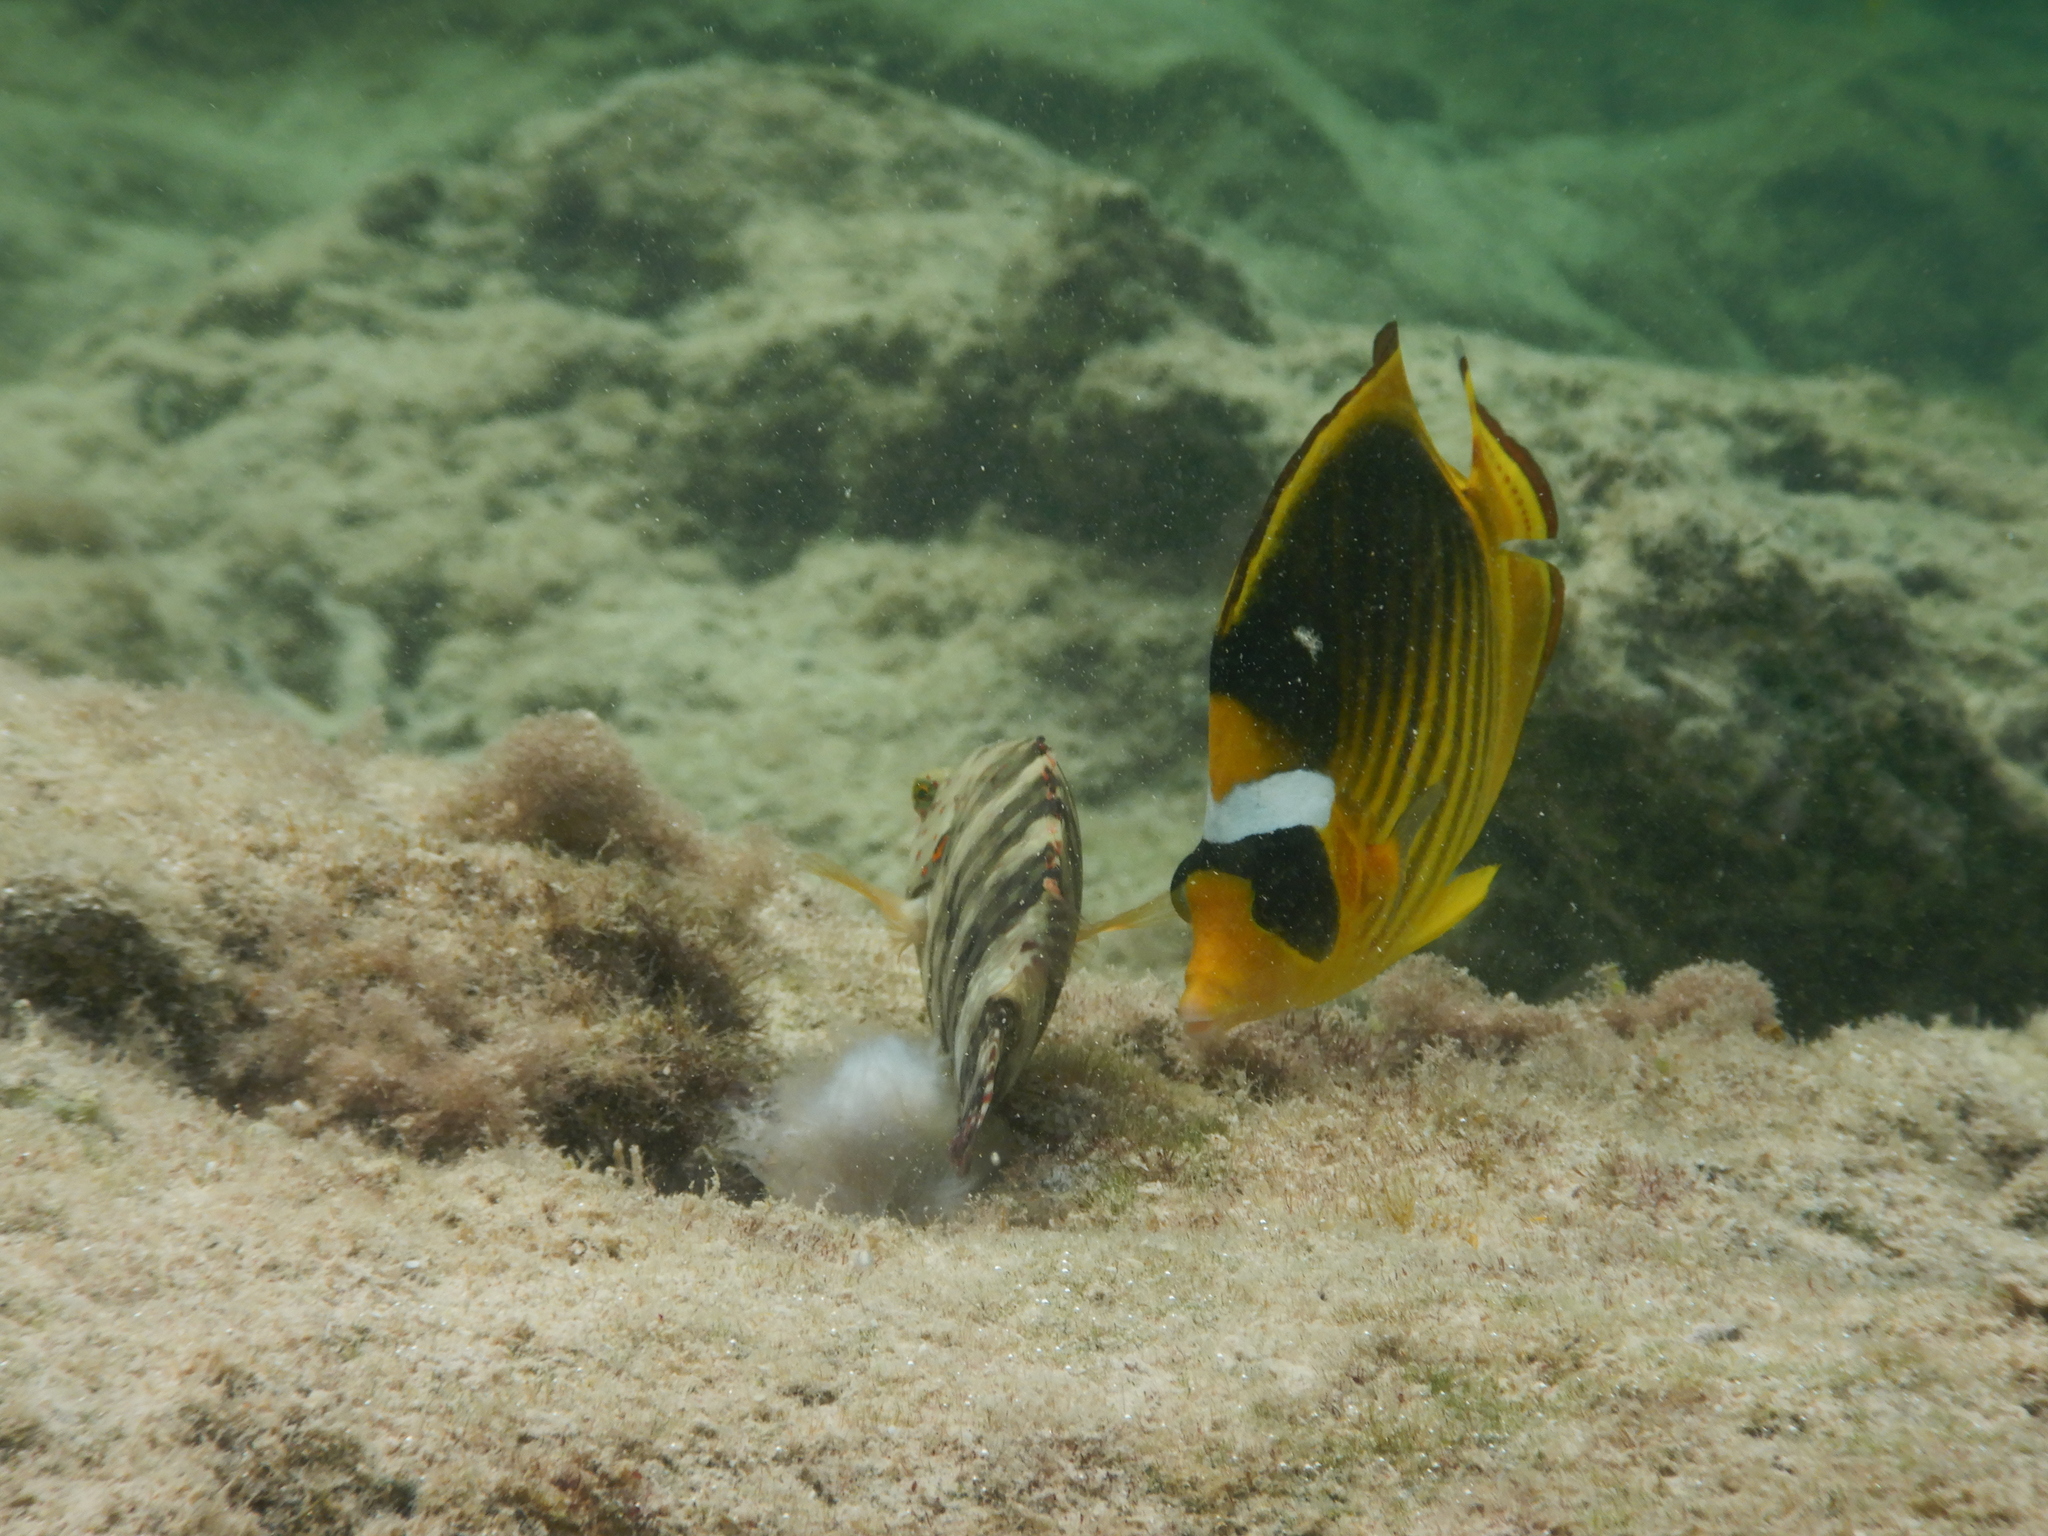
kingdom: Animalia
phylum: Chordata
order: Perciformes
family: Labridae
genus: Cheilinus
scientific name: Cheilinus
